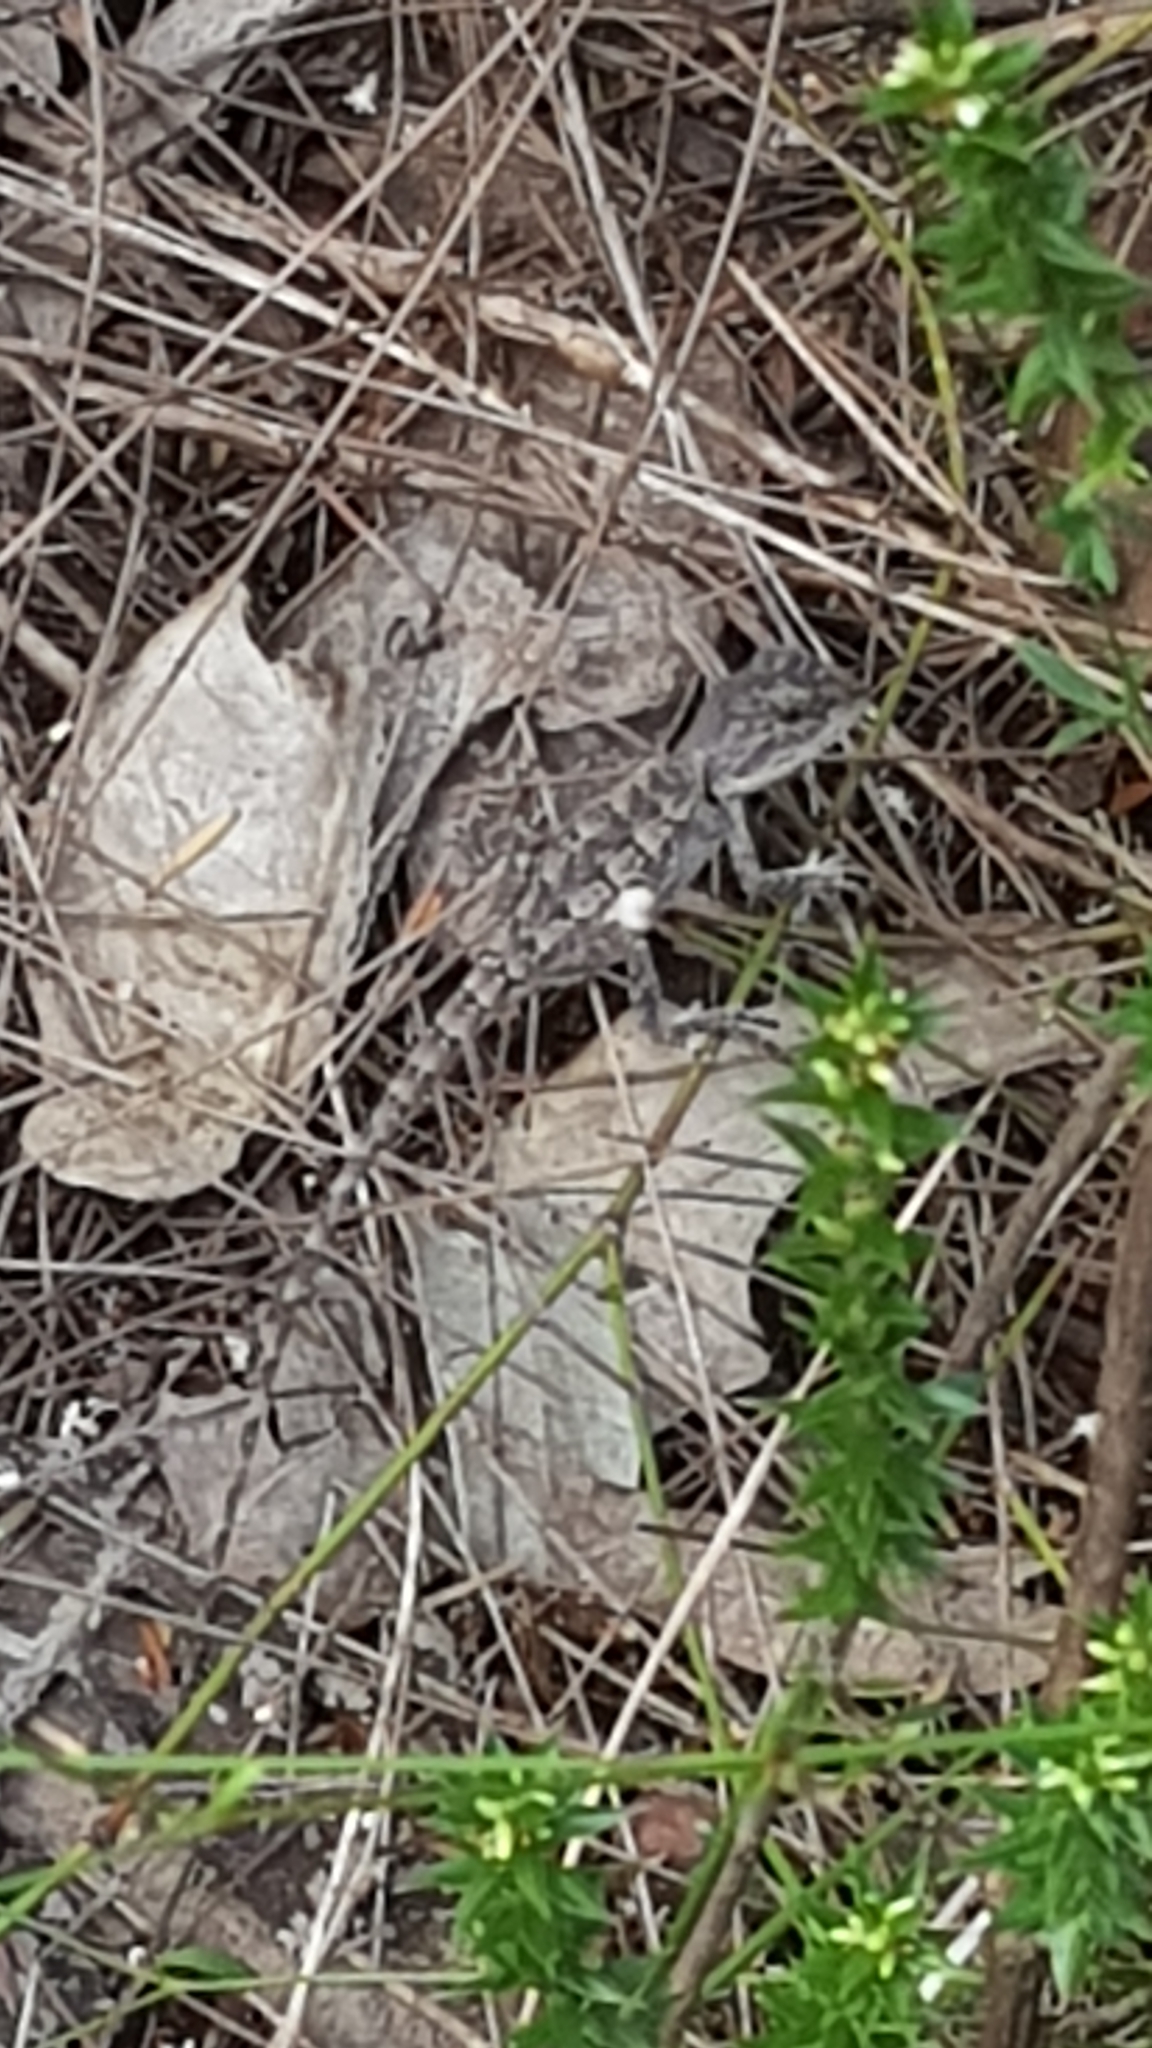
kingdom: Animalia
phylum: Chordata
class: Squamata
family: Agamidae
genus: Amphibolurus
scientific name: Amphibolurus muricatus
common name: Jacky lizard
